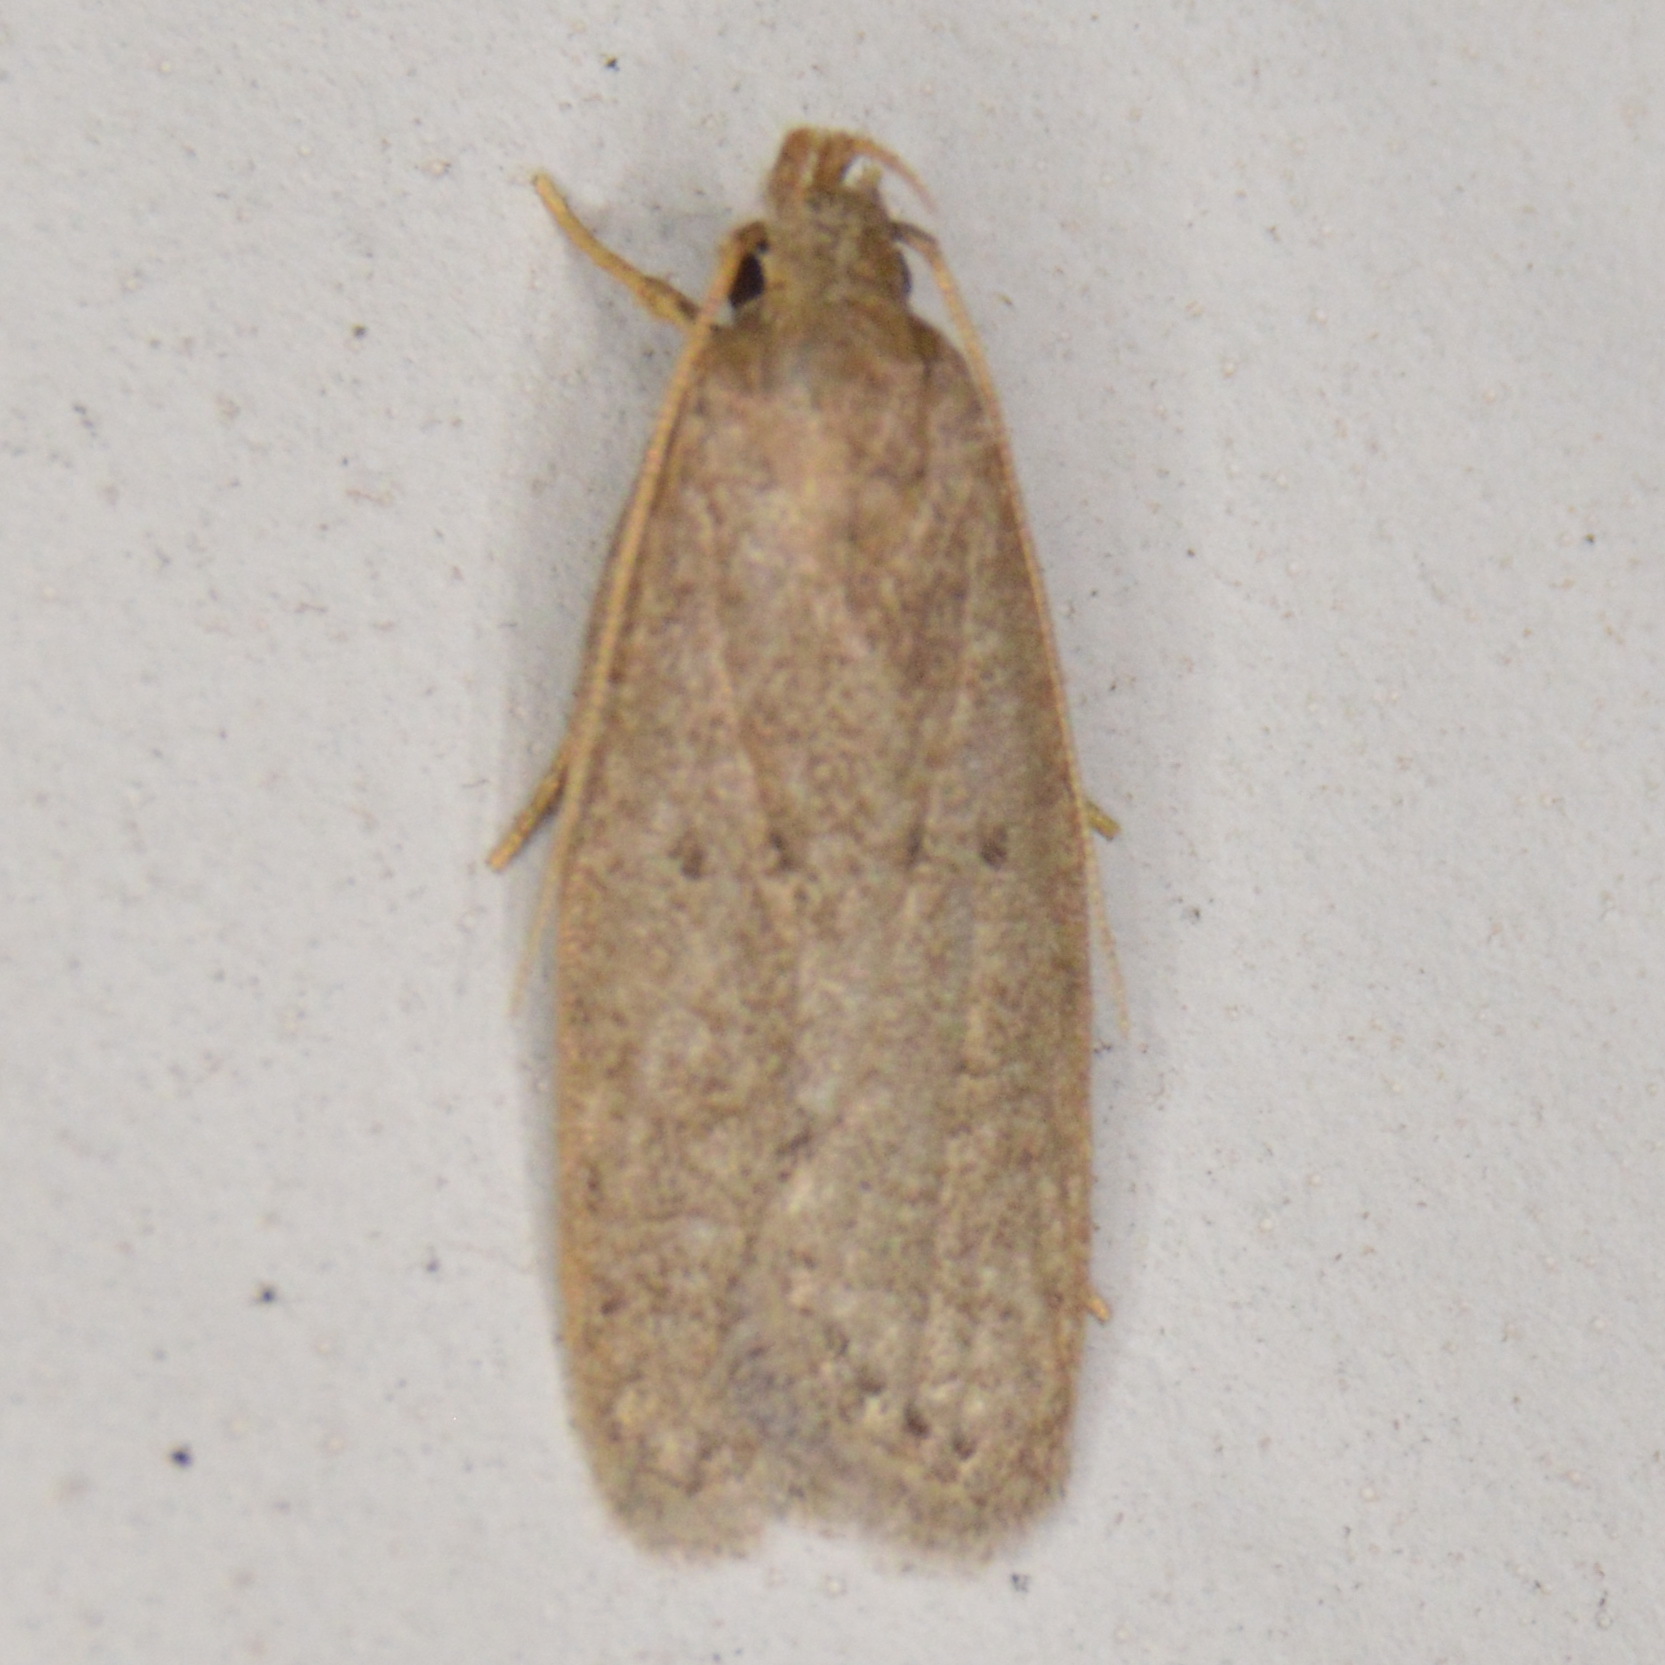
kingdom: Animalia
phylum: Arthropoda
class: Insecta
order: Lepidoptera
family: Autostichidae
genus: Autosticha
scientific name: Autosticha kyotensis
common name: Kyoto moth
